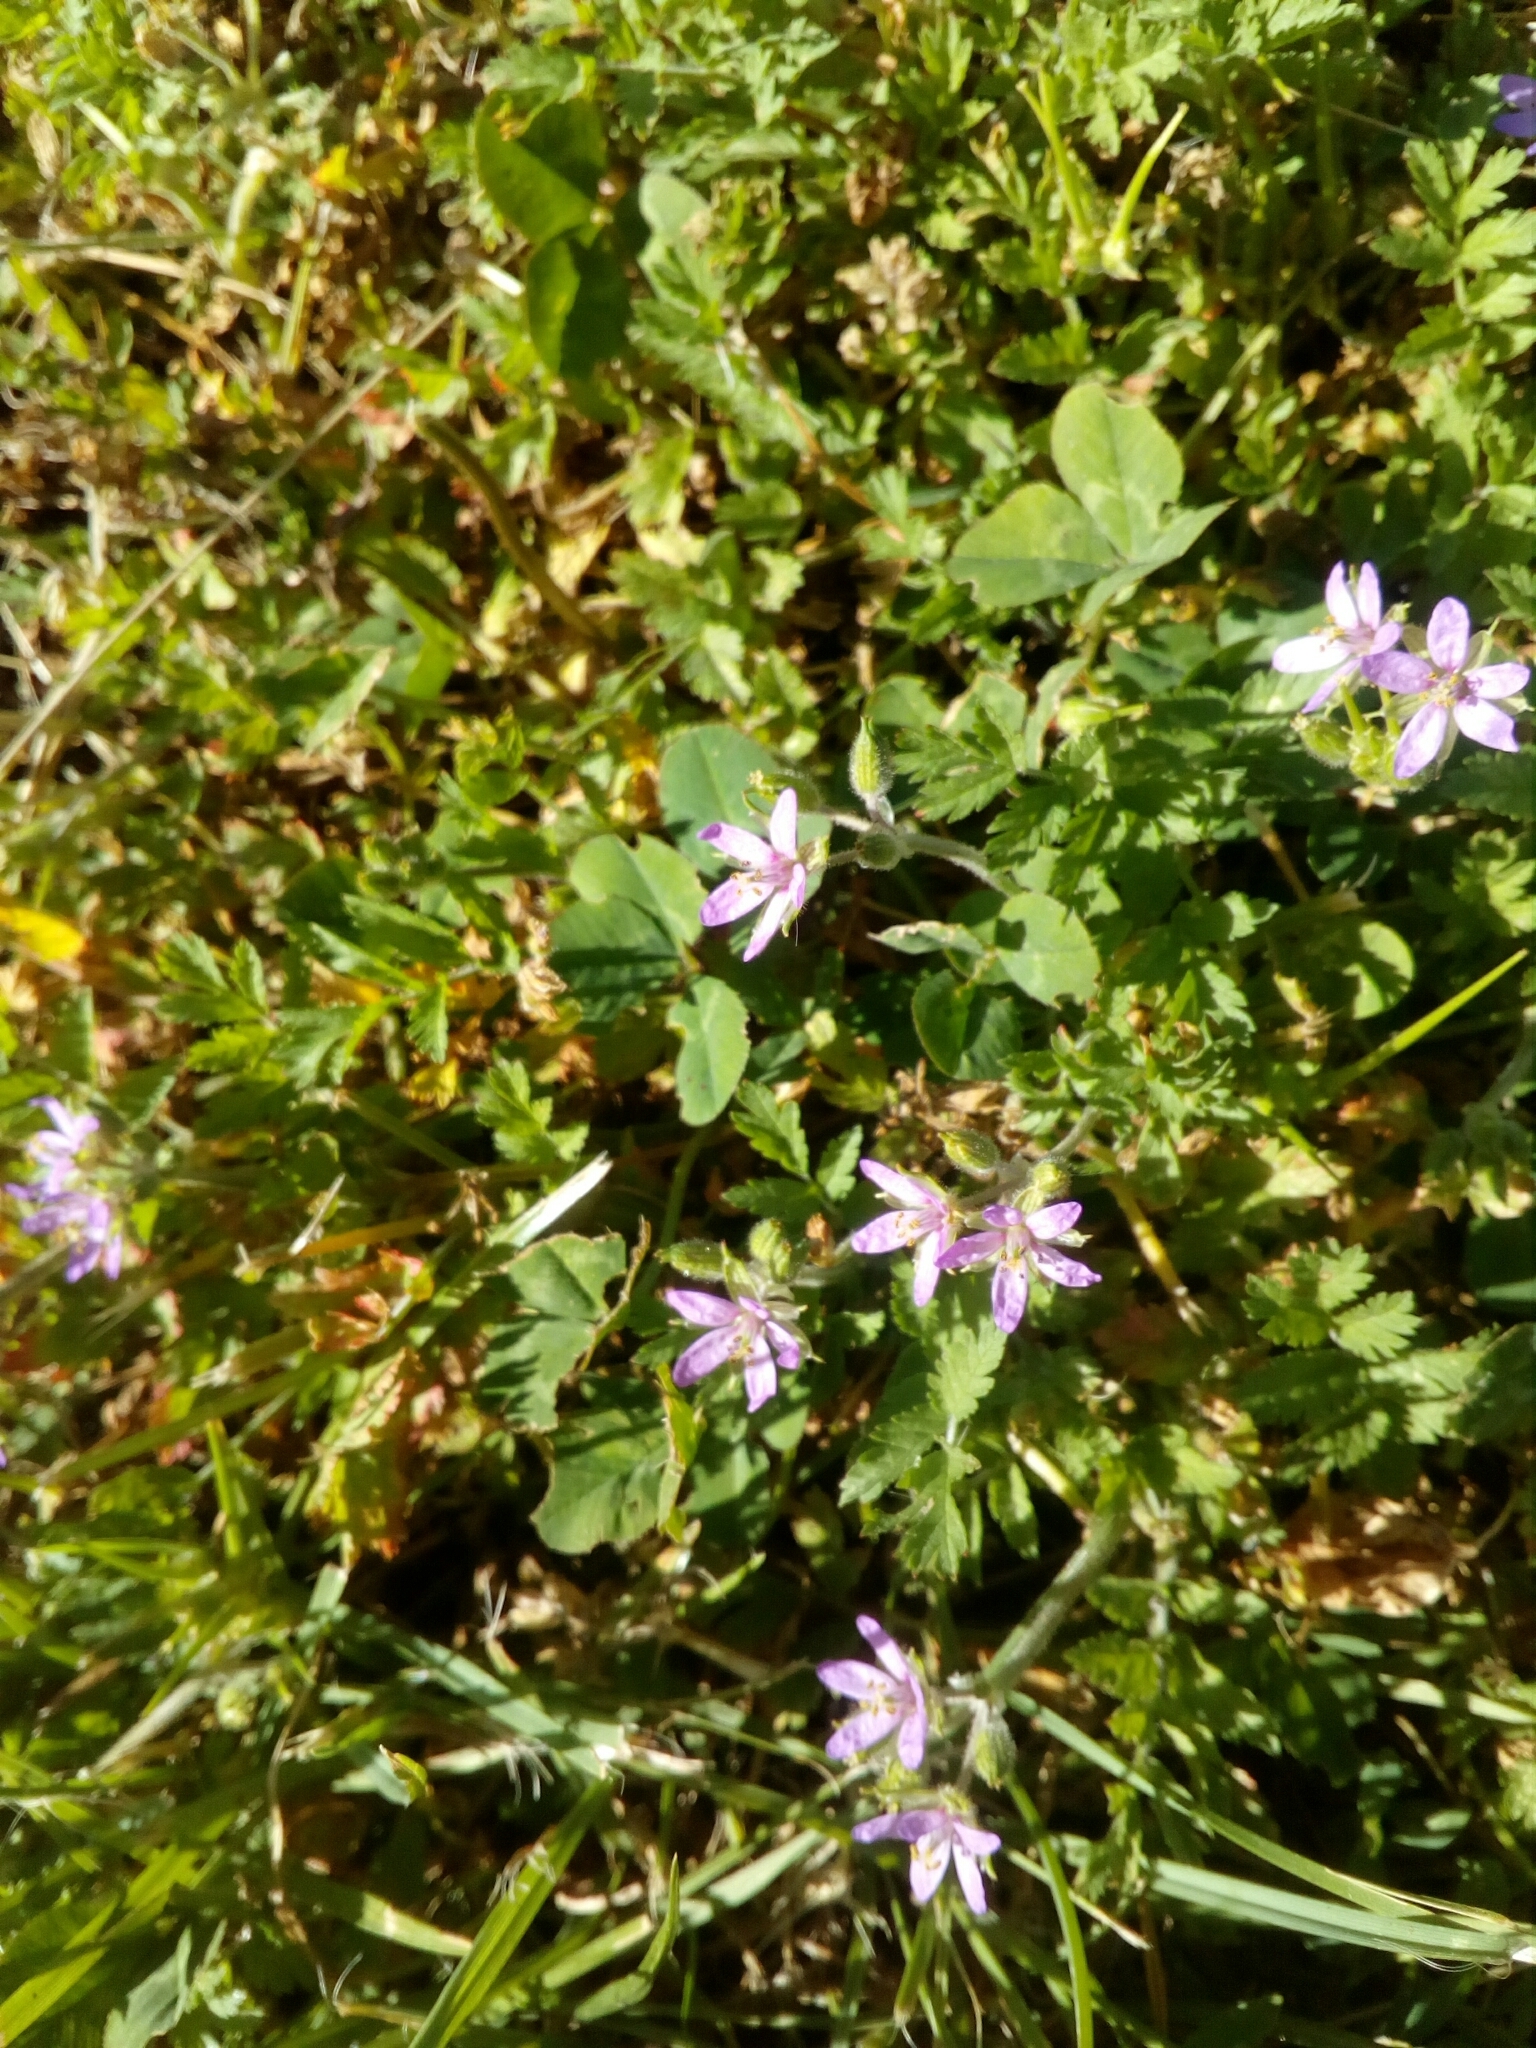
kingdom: Plantae
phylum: Tracheophyta
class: Magnoliopsida
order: Geraniales
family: Geraniaceae
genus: Erodium
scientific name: Erodium moschatum
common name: Musk stork's-bill
